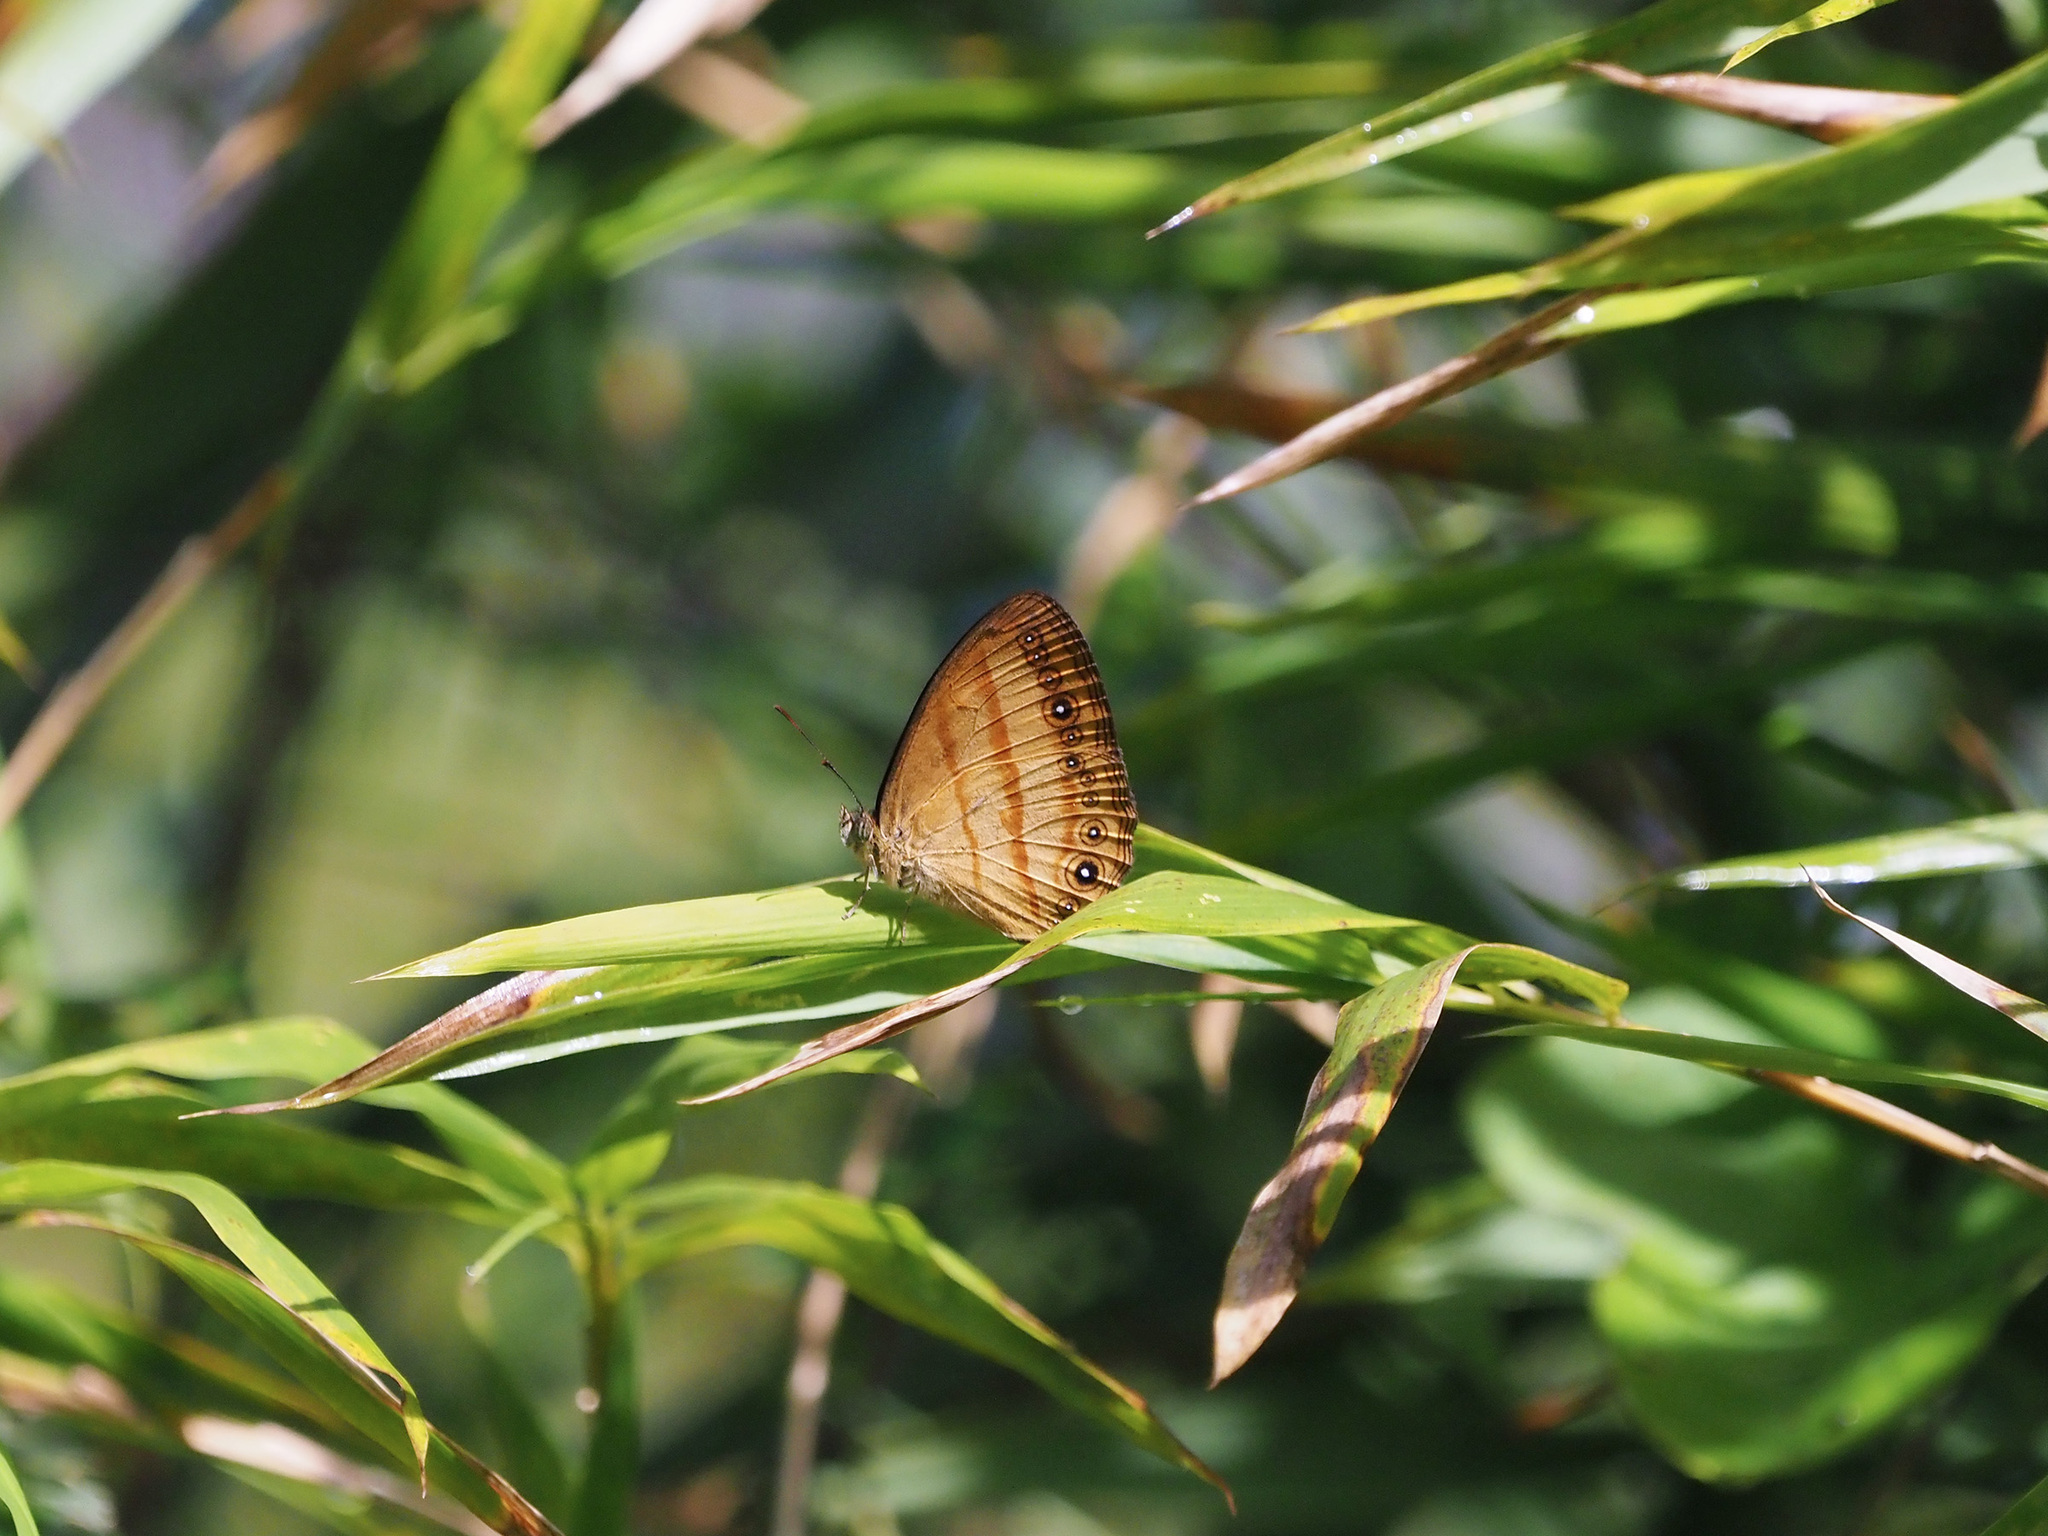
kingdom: Animalia
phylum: Arthropoda
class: Insecta
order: Lepidoptera
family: Nymphalidae
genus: Mycalesis
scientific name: Mycalesis marginata
